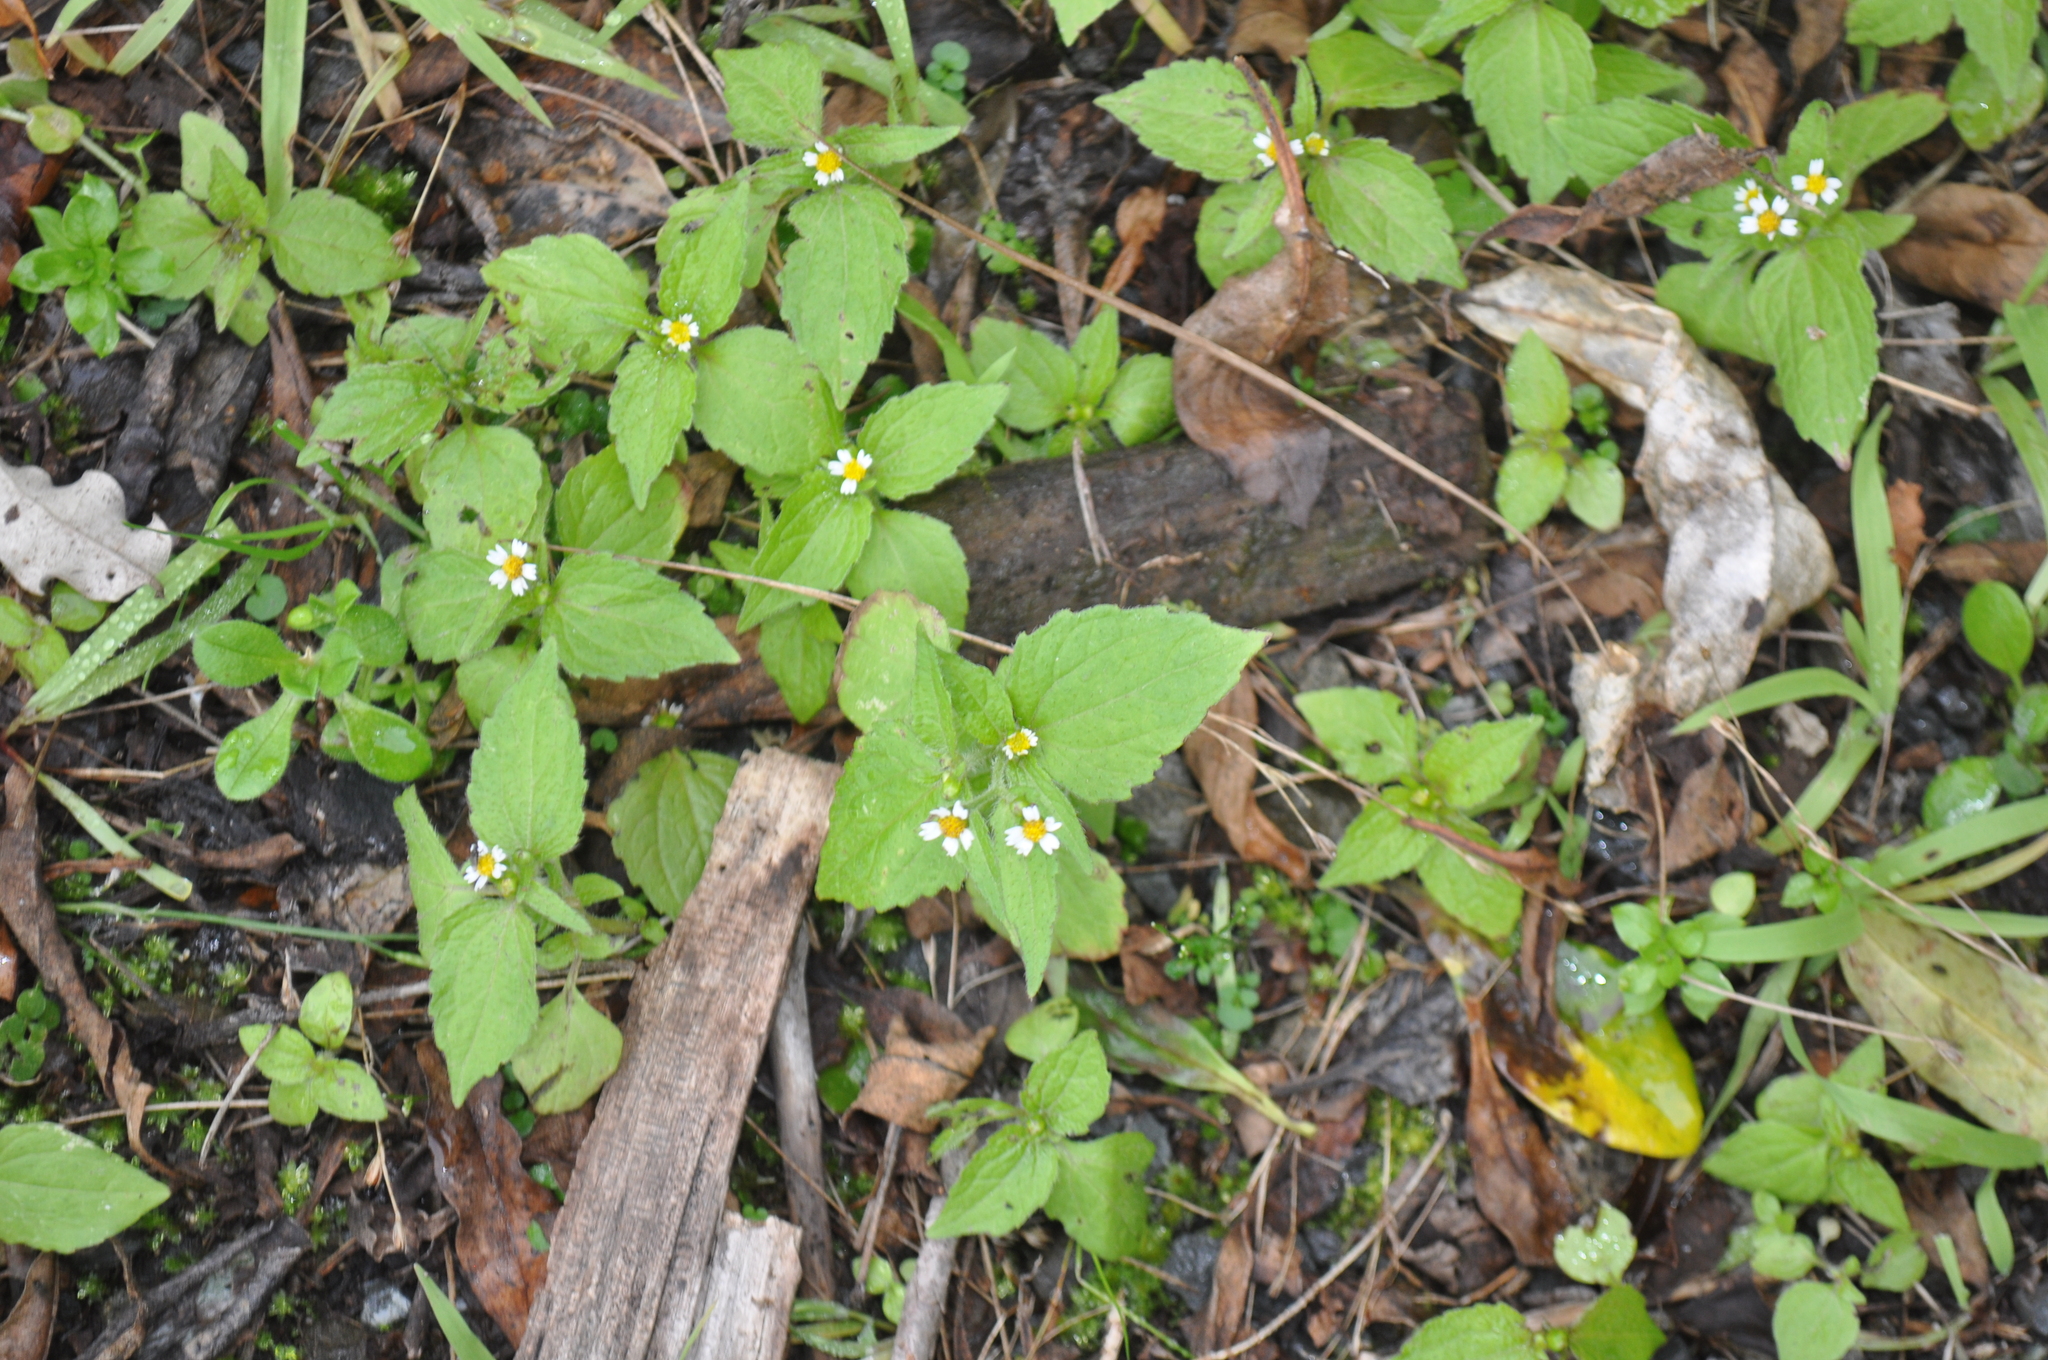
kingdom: Plantae
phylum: Tracheophyta
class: Magnoliopsida
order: Asterales
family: Asteraceae
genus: Galinsoga
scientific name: Galinsoga quadriradiata
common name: Shaggy soldier
